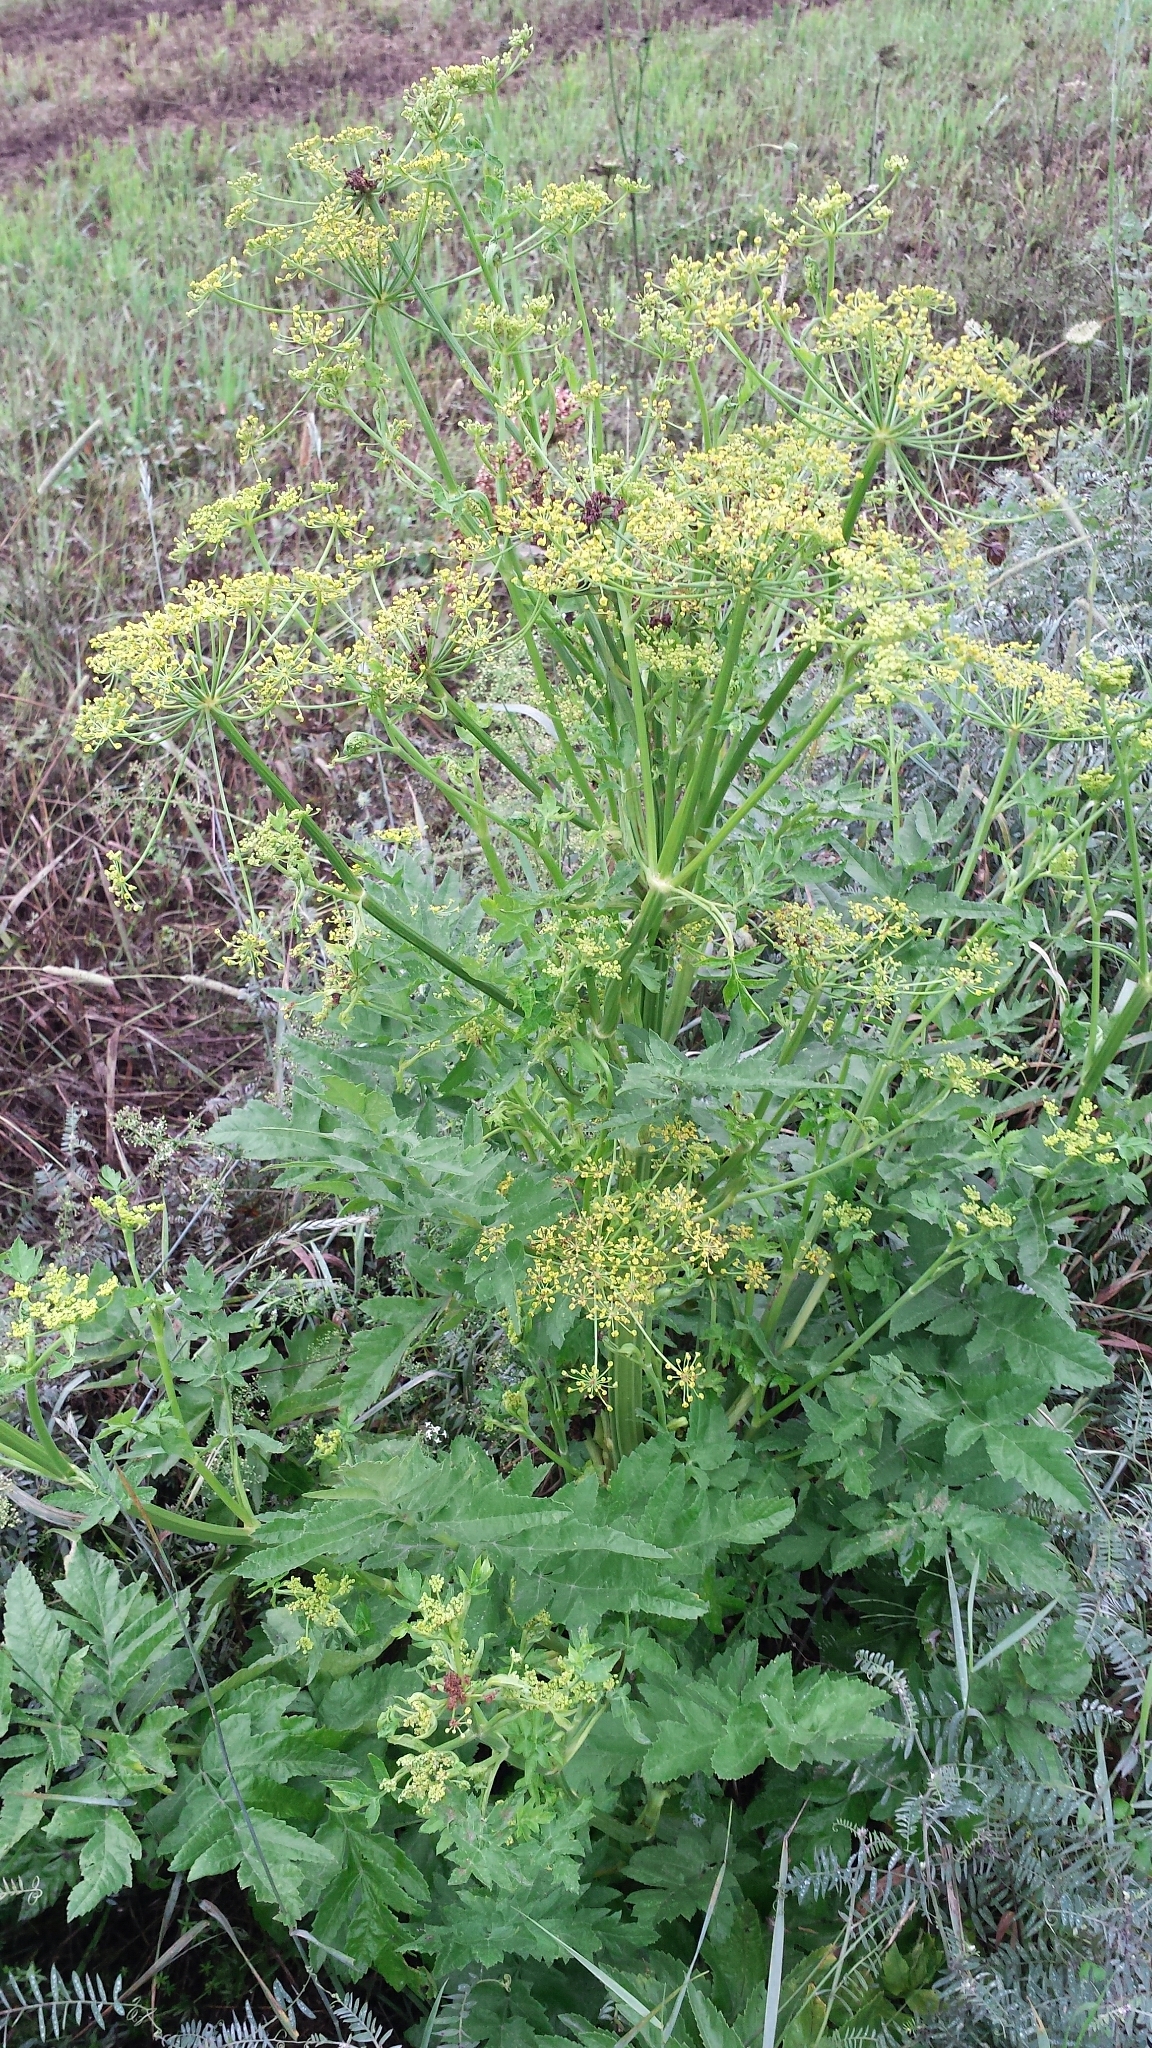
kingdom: Plantae
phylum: Tracheophyta
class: Magnoliopsida
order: Apiales
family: Apiaceae
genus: Pastinaca
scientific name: Pastinaca sativa
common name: Wild parsnip
